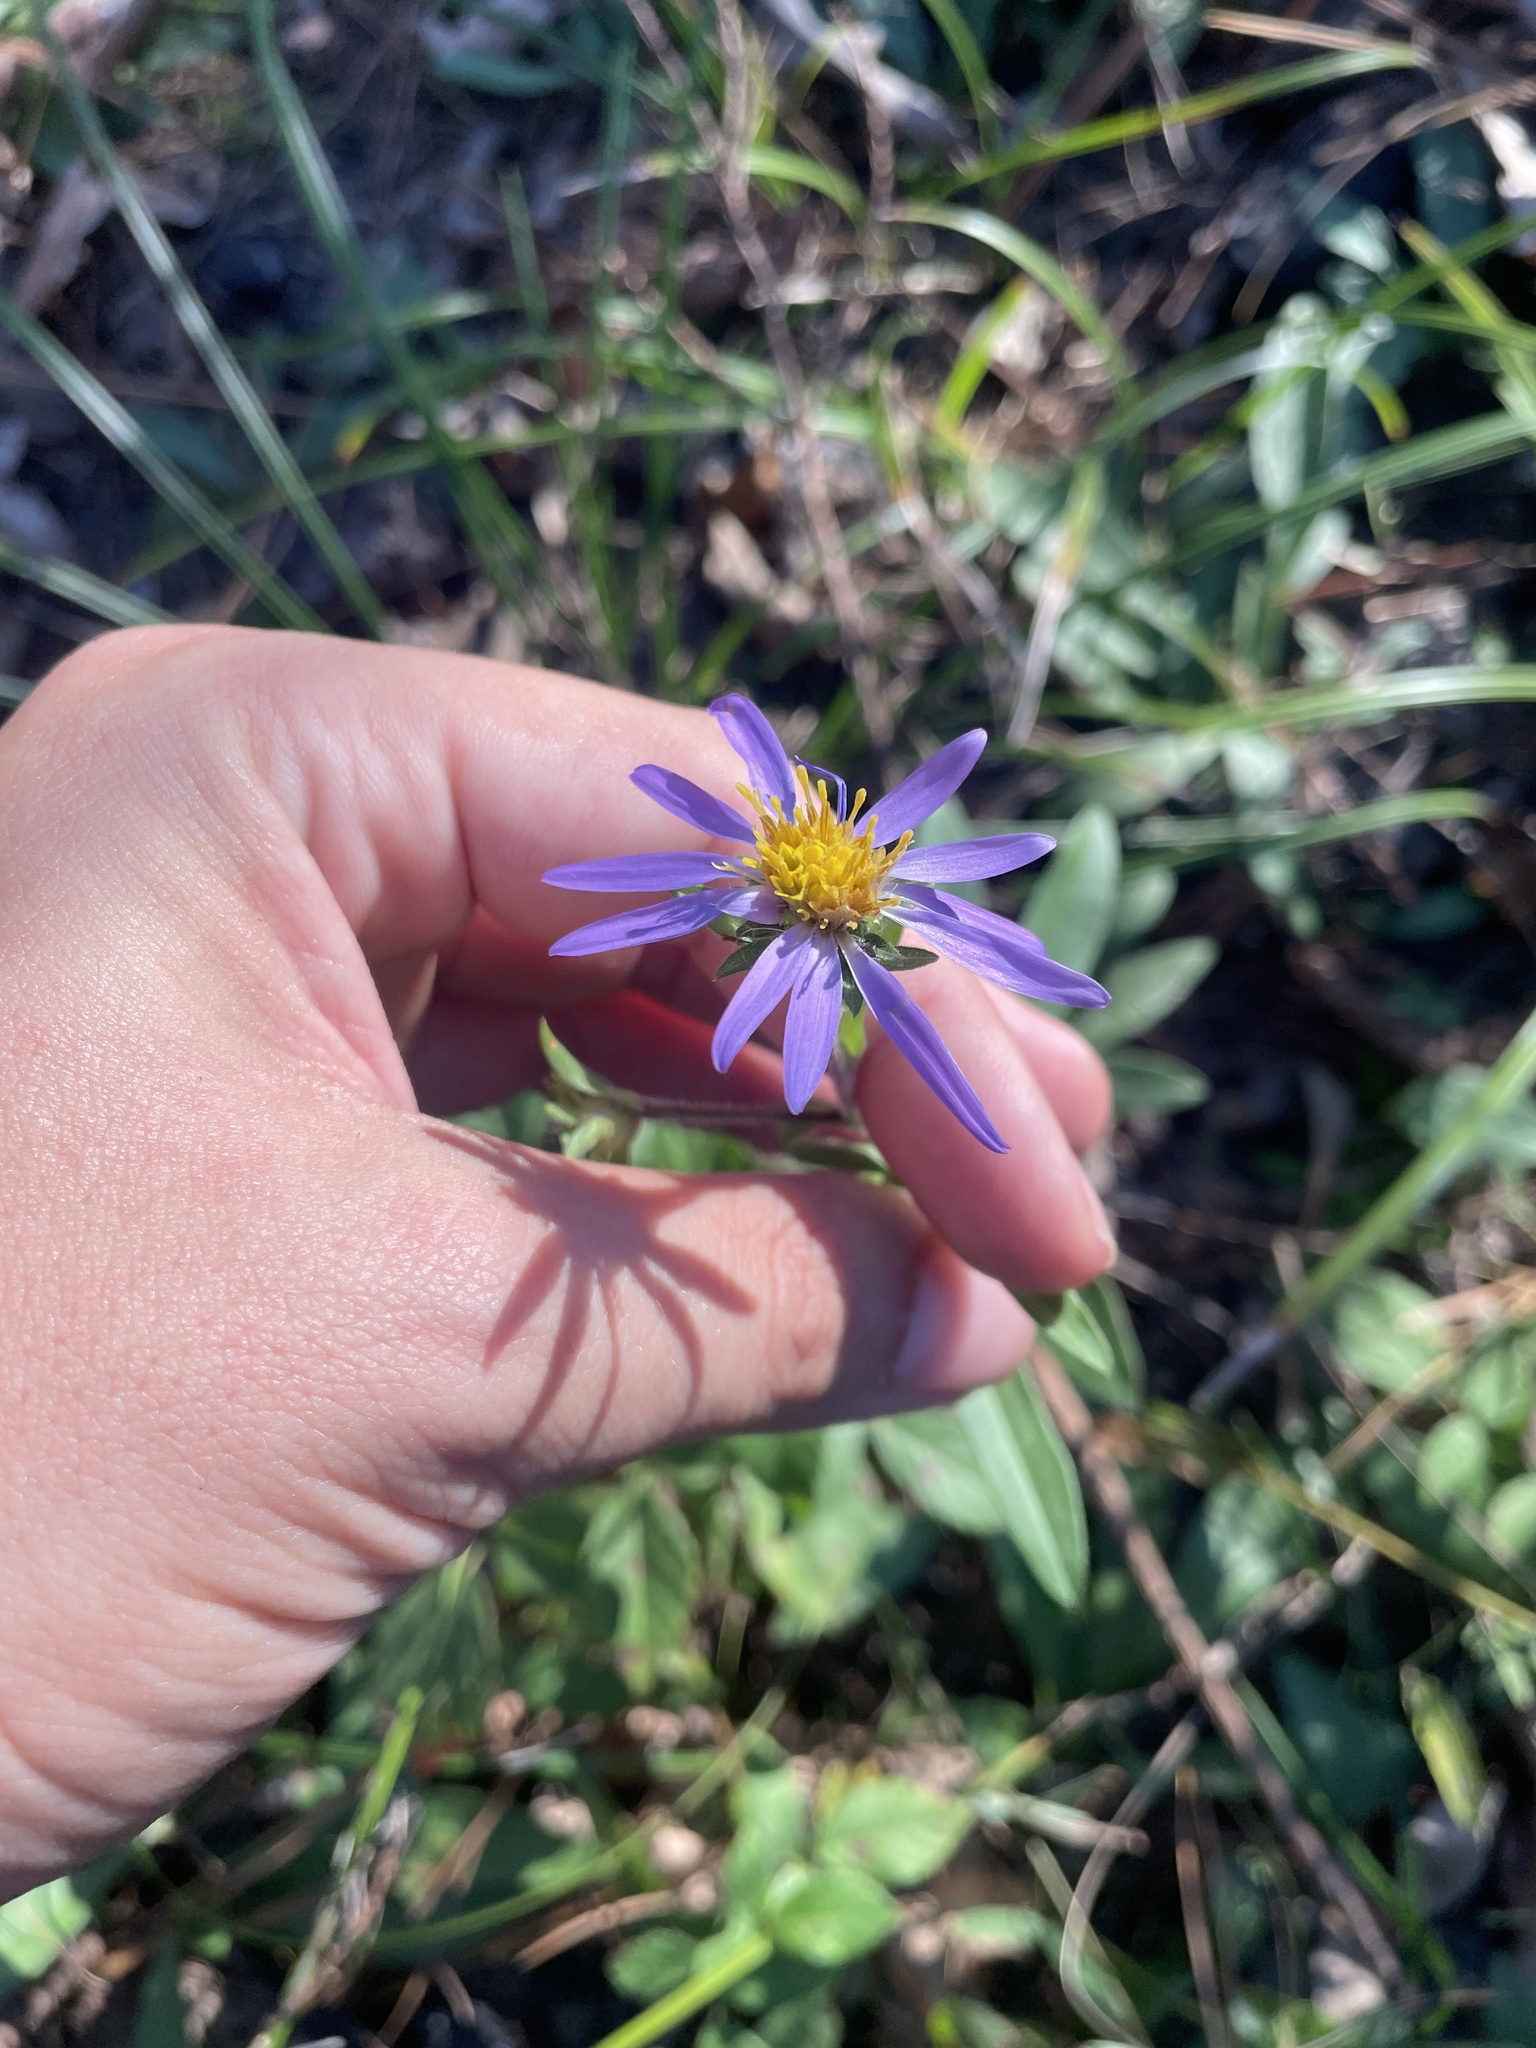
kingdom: Plantae
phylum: Tracheophyta
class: Magnoliopsida
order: Asterales
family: Asteraceae
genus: Eurybia
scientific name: Eurybia spectabilis
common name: Low showy aster
